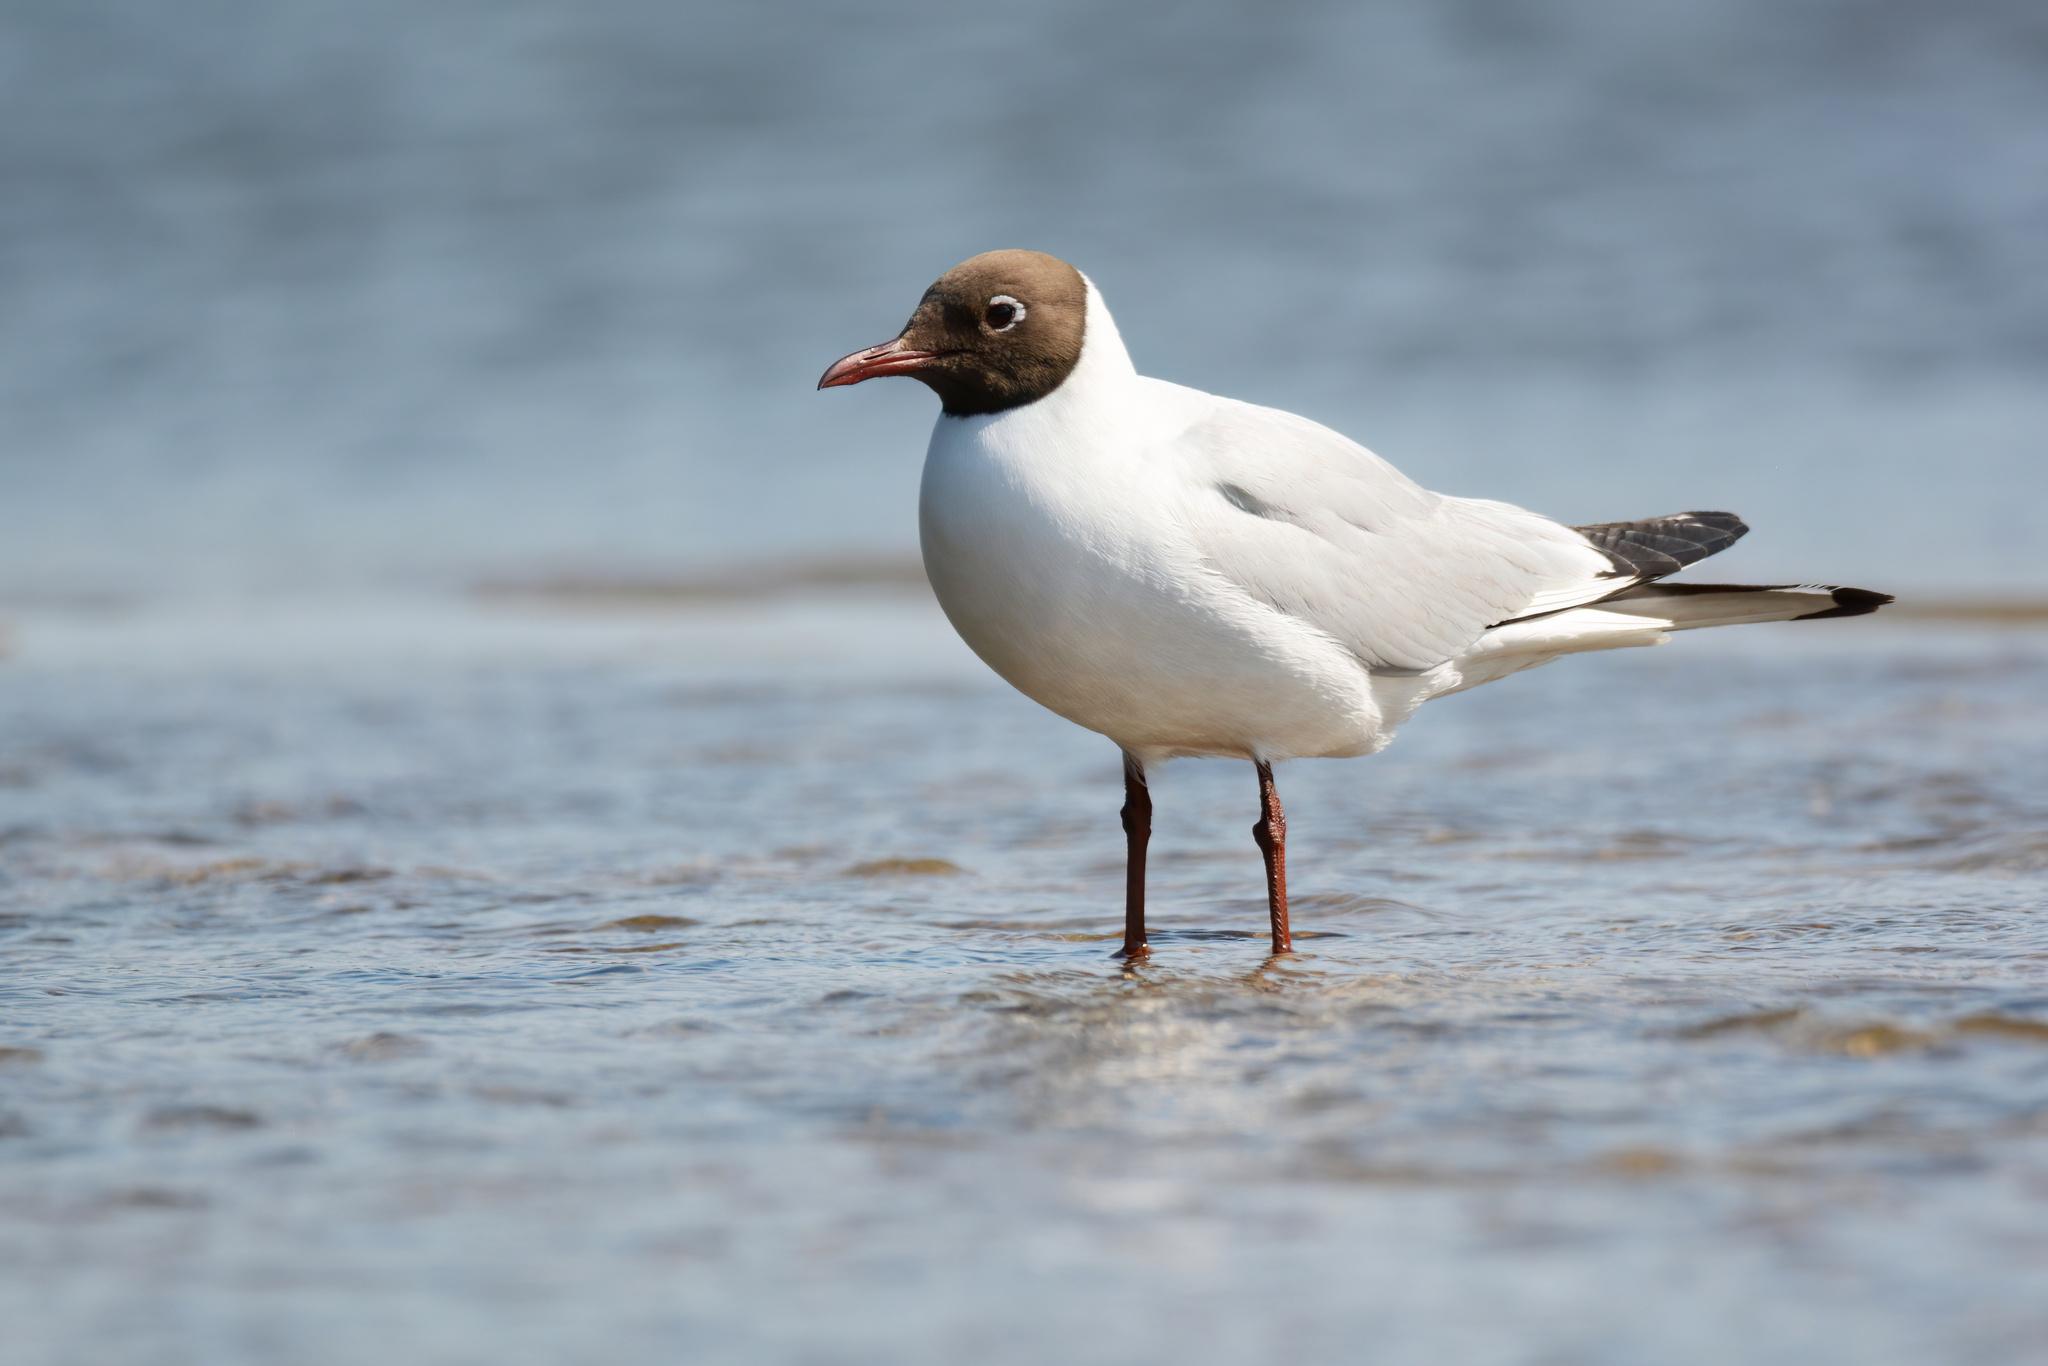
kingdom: Animalia
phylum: Chordata
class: Aves
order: Charadriiformes
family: Laridae
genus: Chroicocephalus
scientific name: Chroicocephalus ridibundus
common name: Black-headed gull
